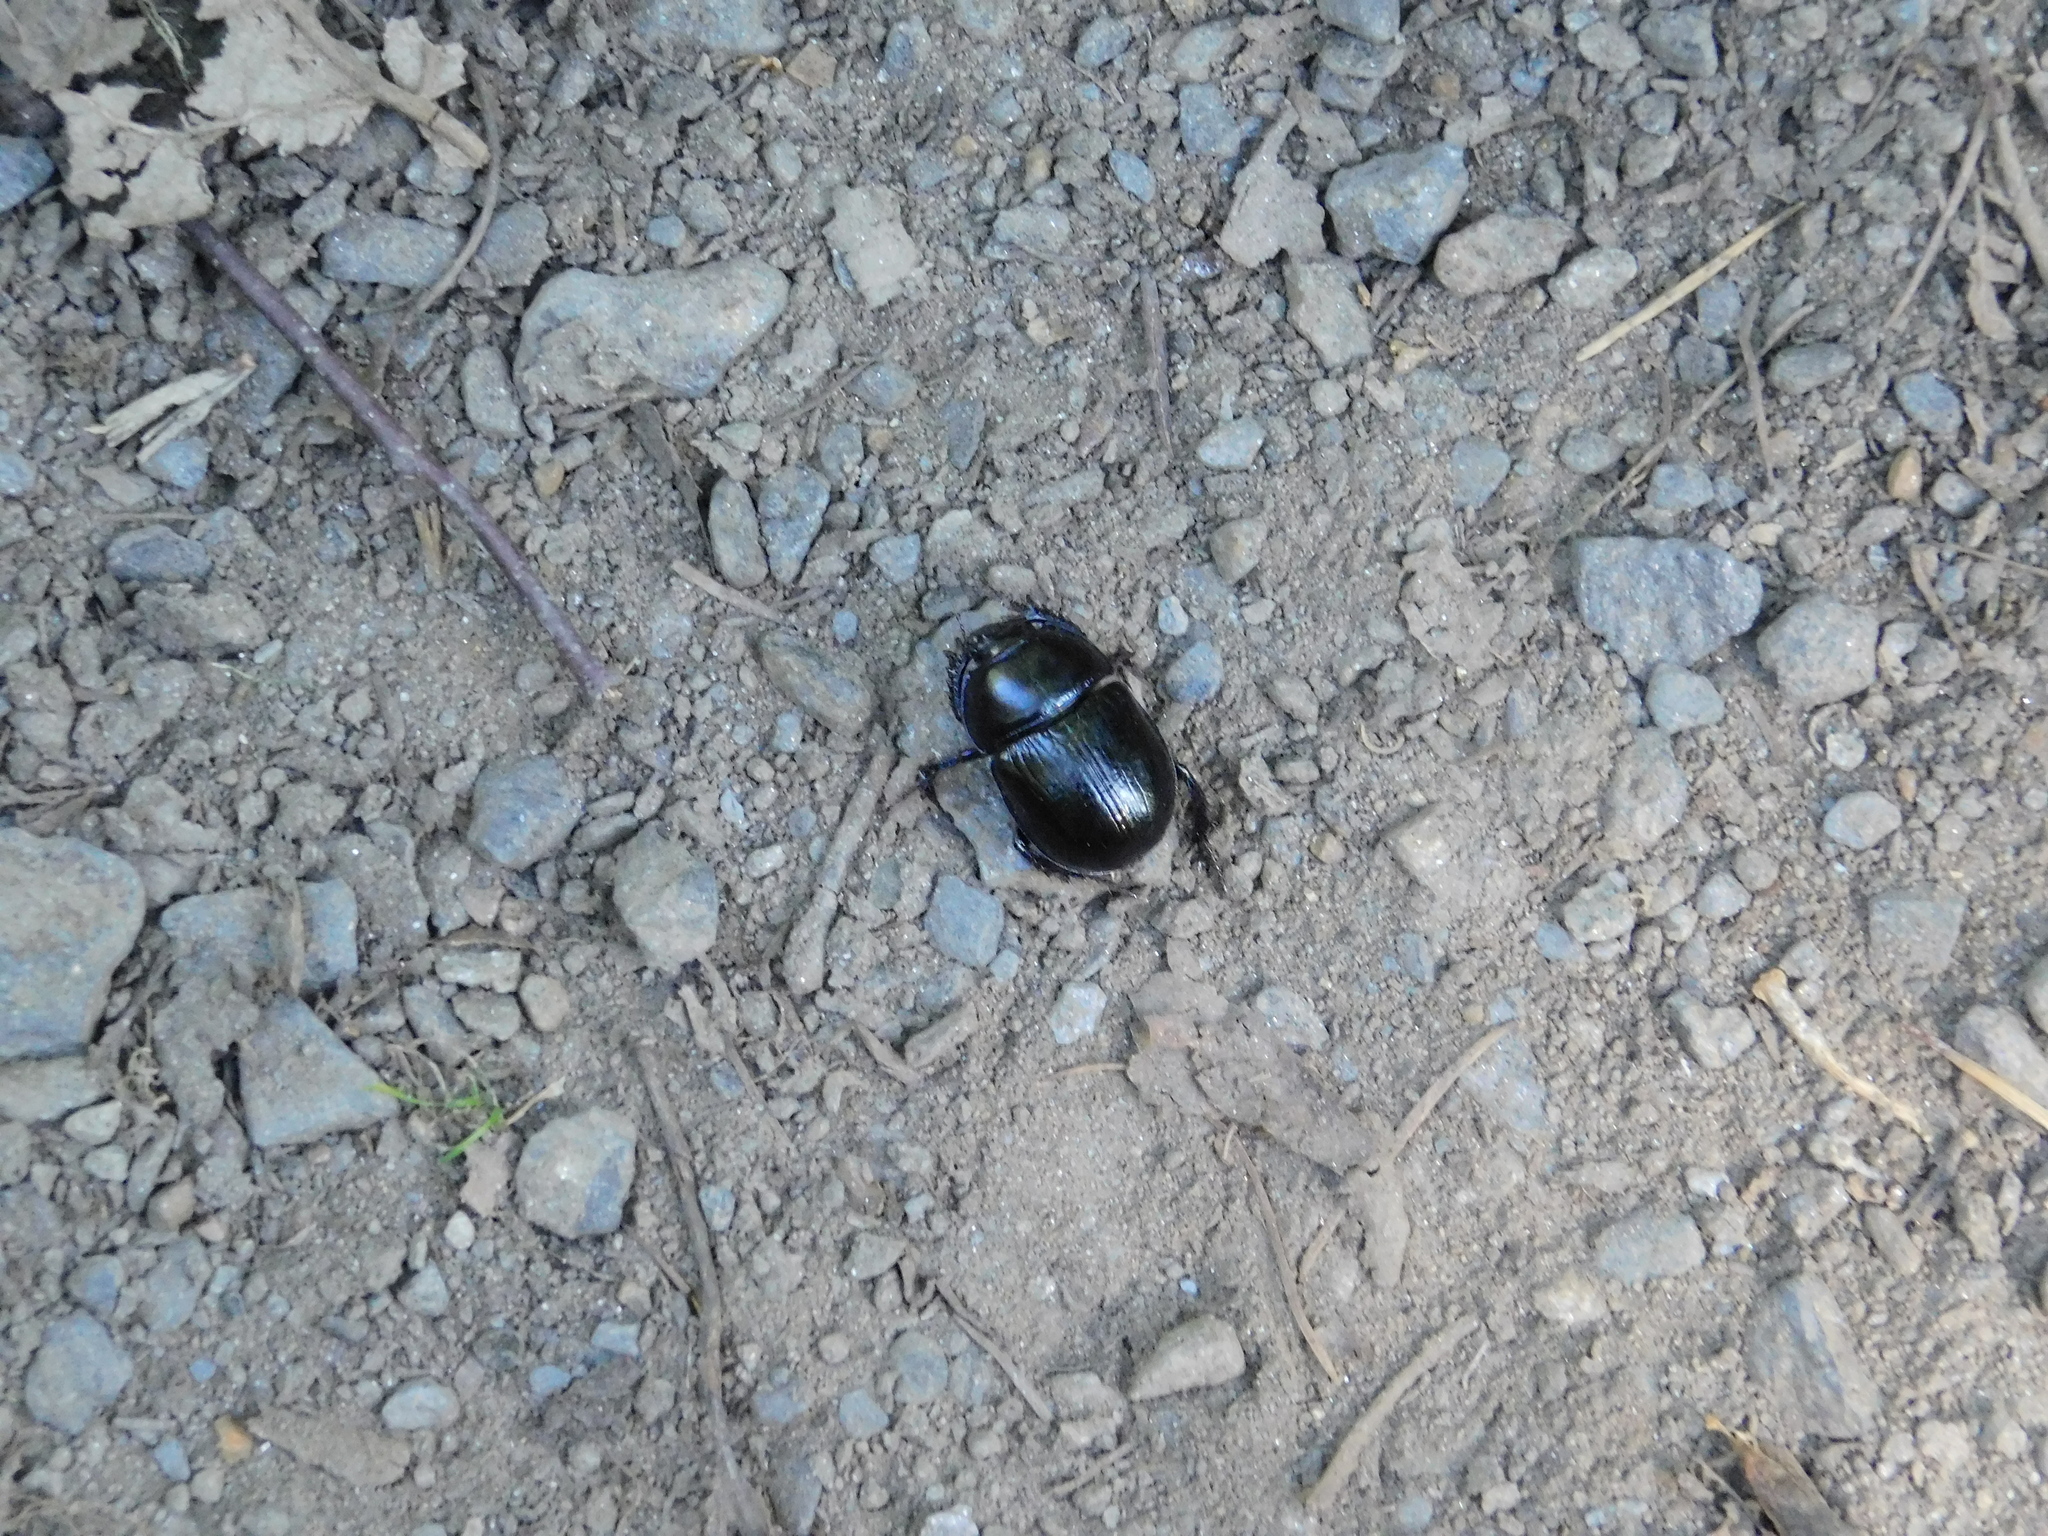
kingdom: Animalia
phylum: Arthropoda
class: Insecta
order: Coleoptera
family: Geotrupidae
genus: Anoplotrupes
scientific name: Anoplotrupes stercorosus
